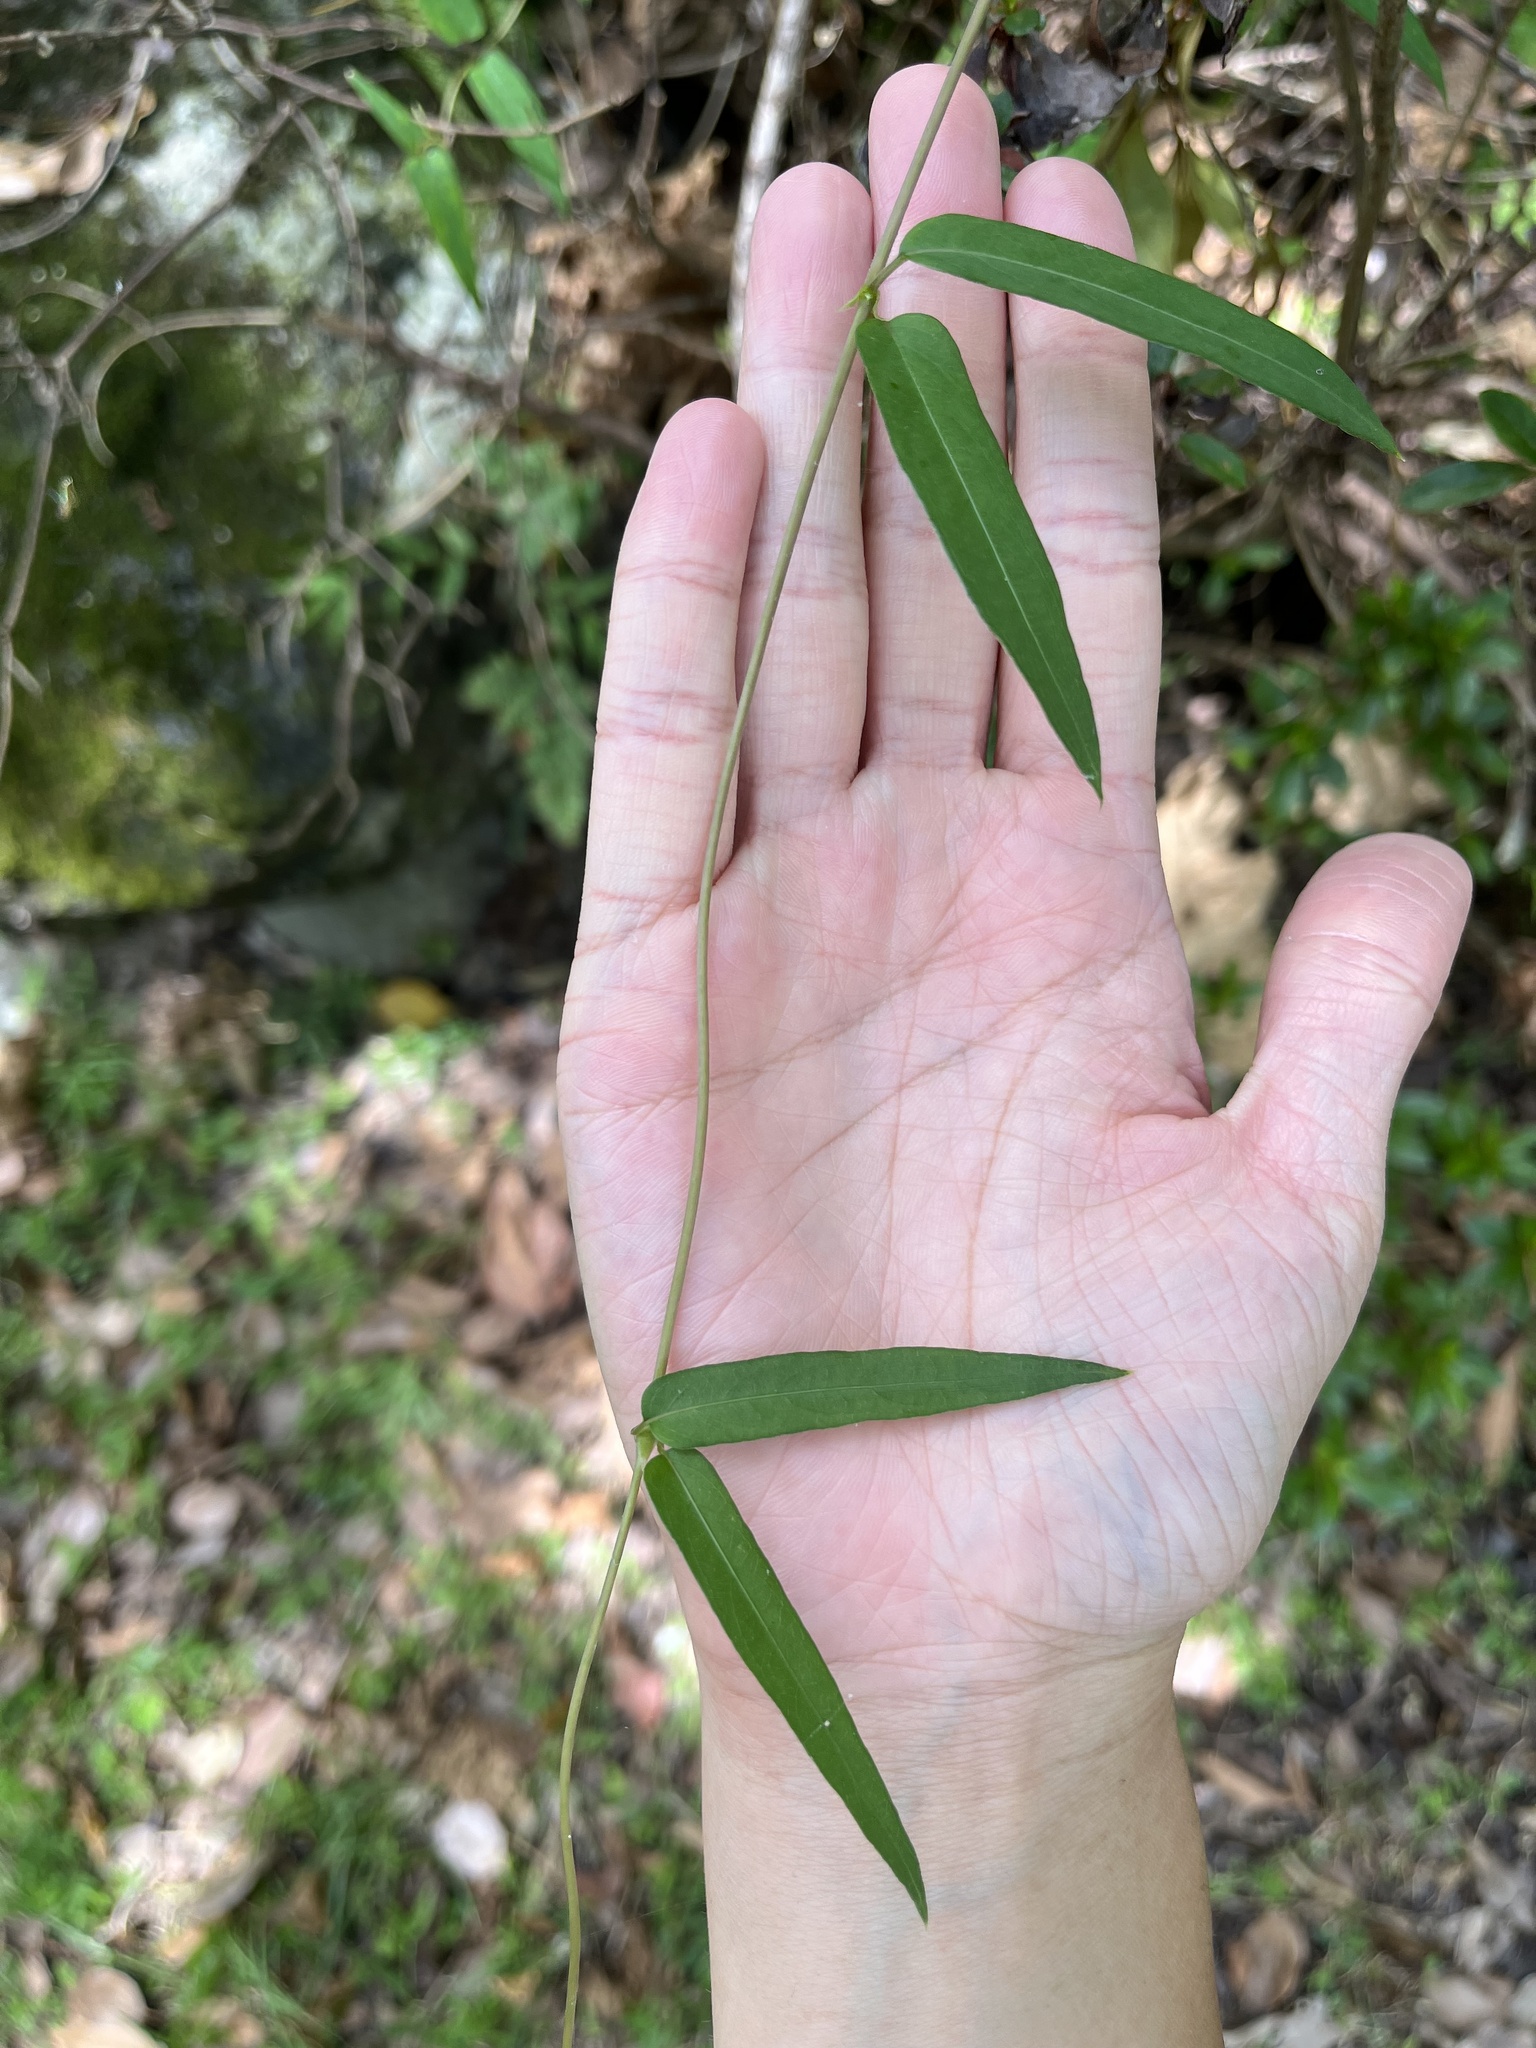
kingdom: Plantae
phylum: Tracheophyta
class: Magnoliopsida
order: Gentianales
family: Rubiaceae
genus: Paederia
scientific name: Paederia foetida
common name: Stinkvine
